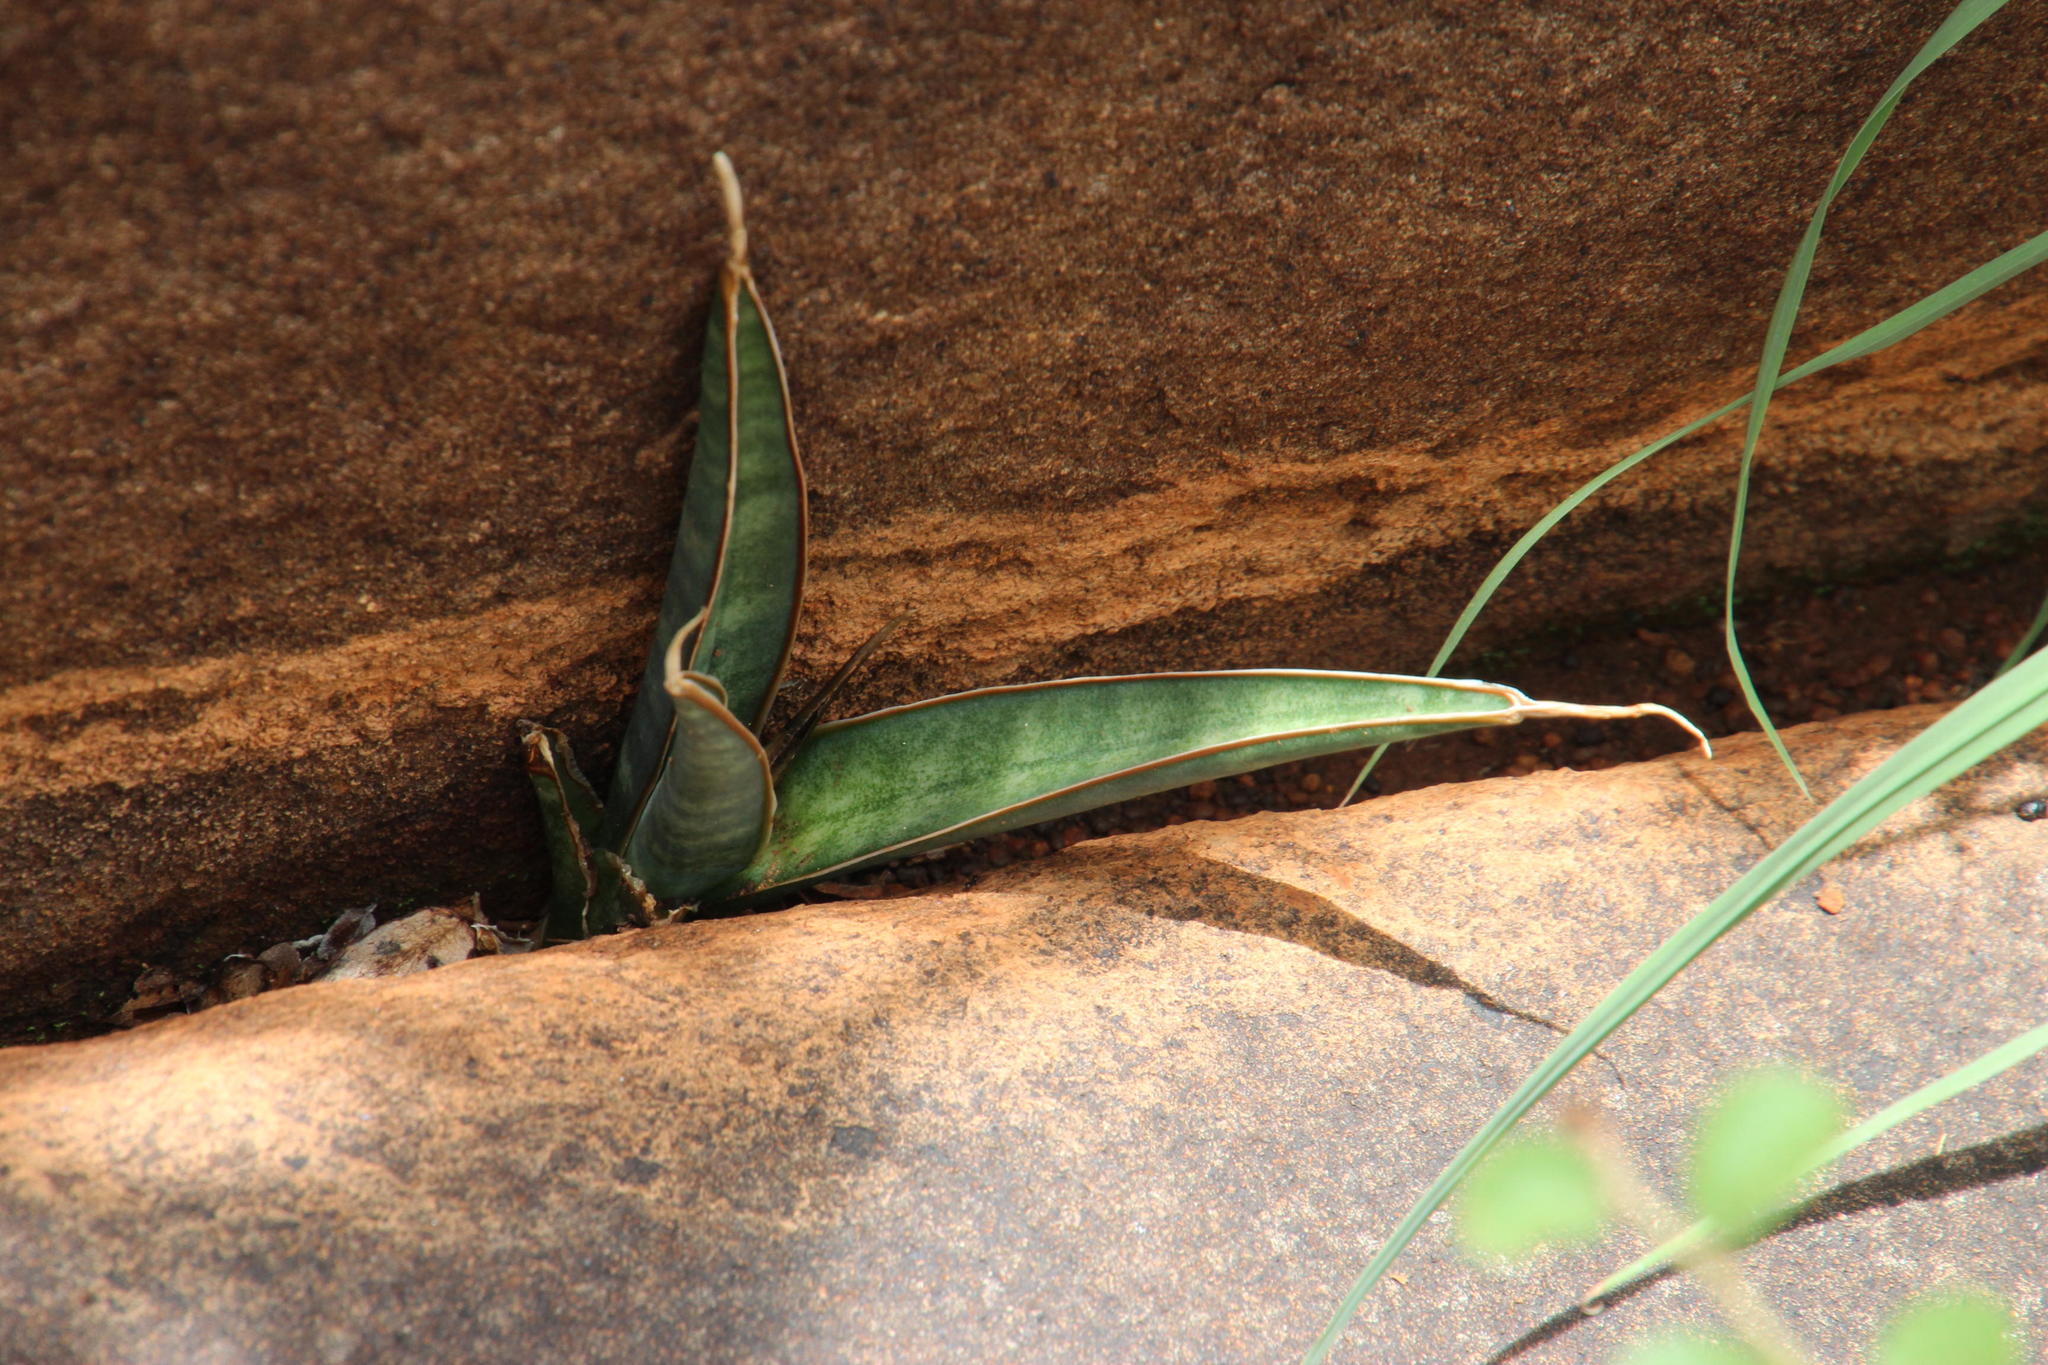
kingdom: Plantae
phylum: Tracheophyta
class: Liliopsida
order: Asparagales
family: Asparagaceae
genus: Dracaena
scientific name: Dracaena aethiopica
